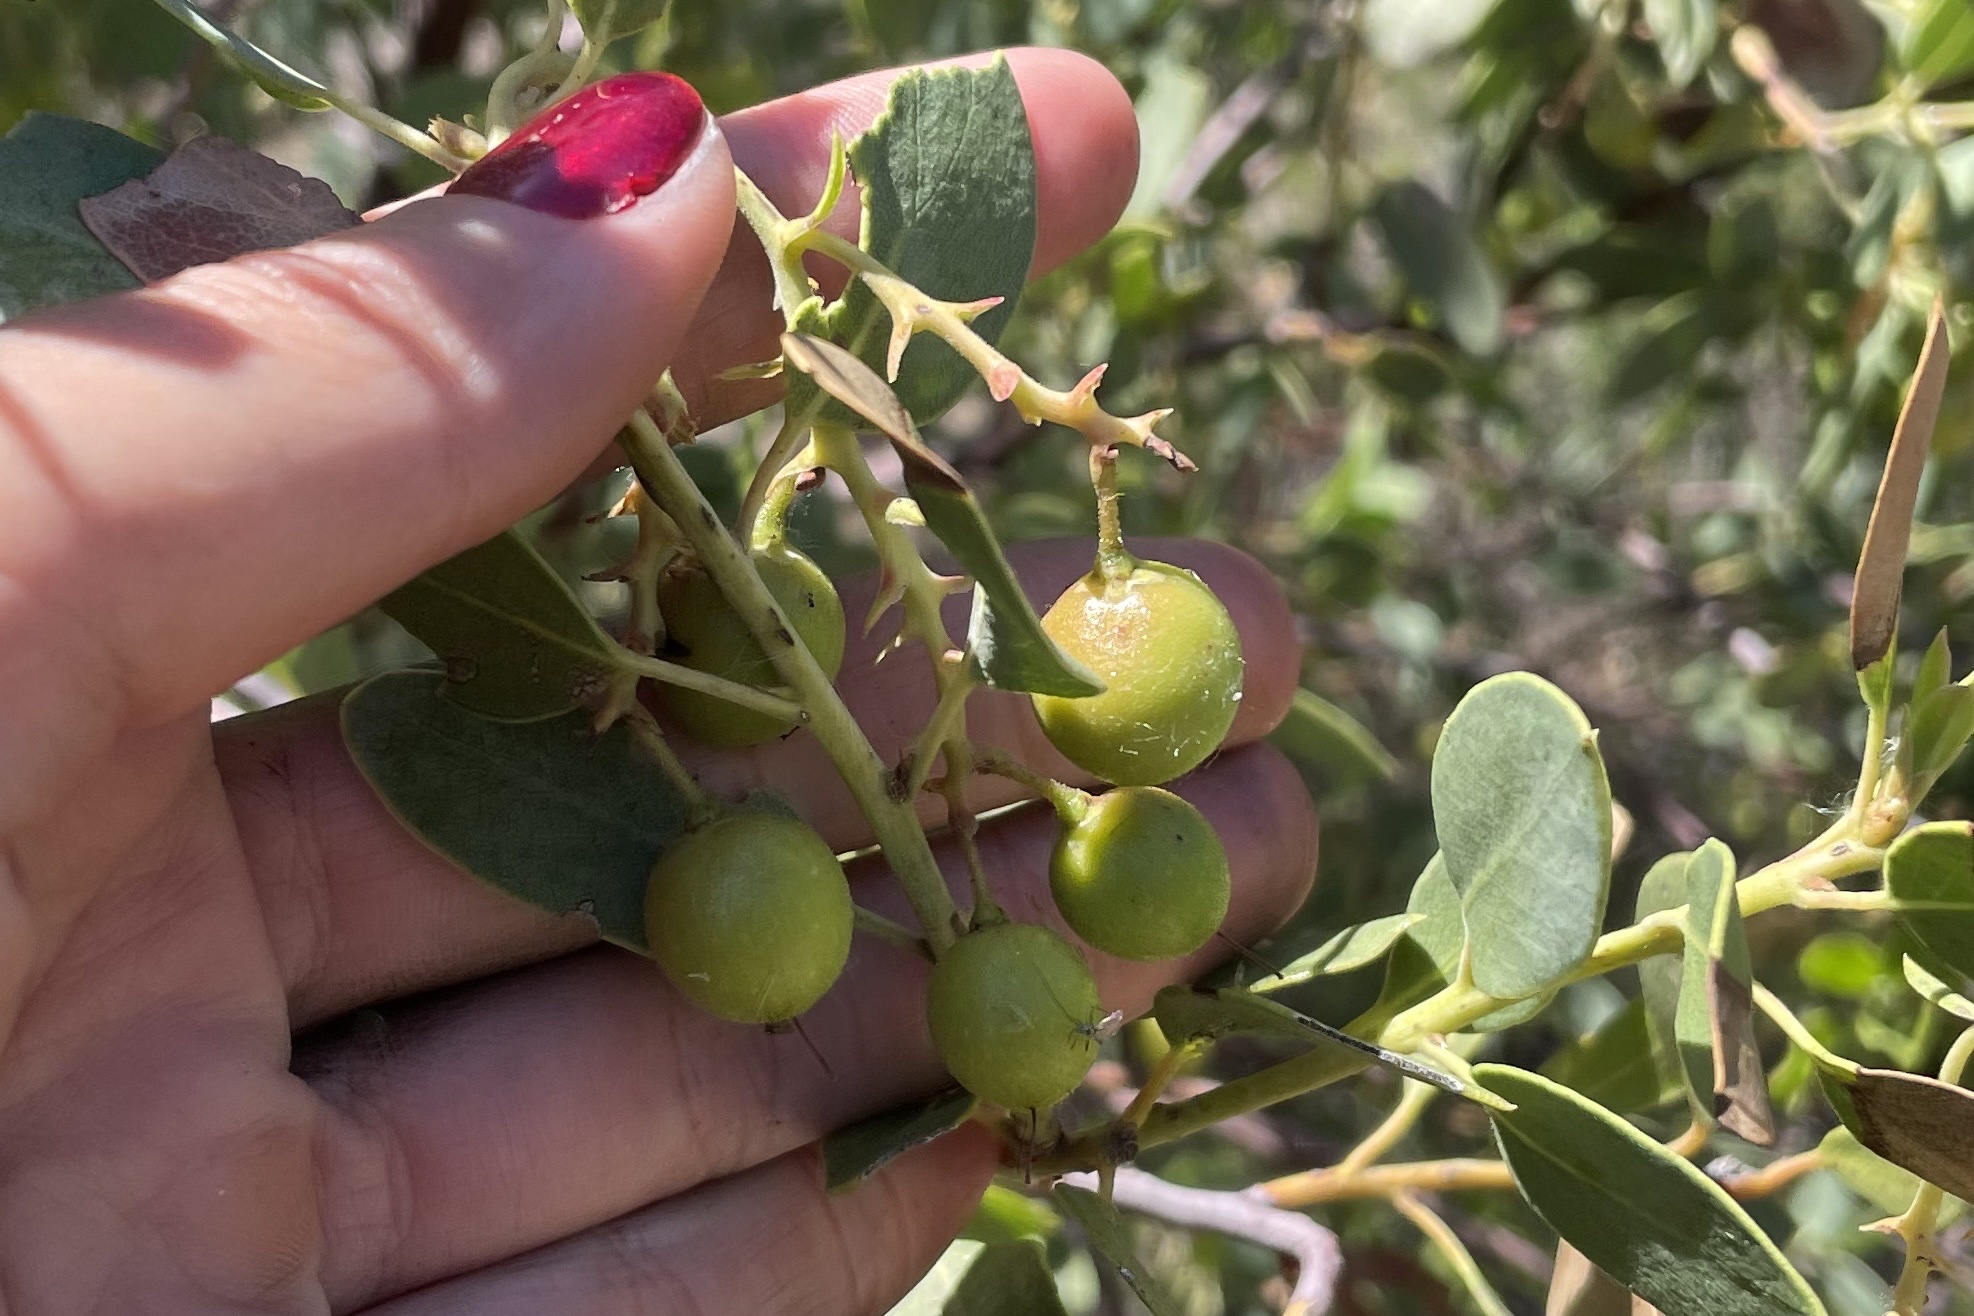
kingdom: Plantae
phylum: Tracheophyta
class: Magnoliopsida
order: Ericales
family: Ericaceae
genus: Arctostaphylos
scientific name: Arctostaphylos glauca
